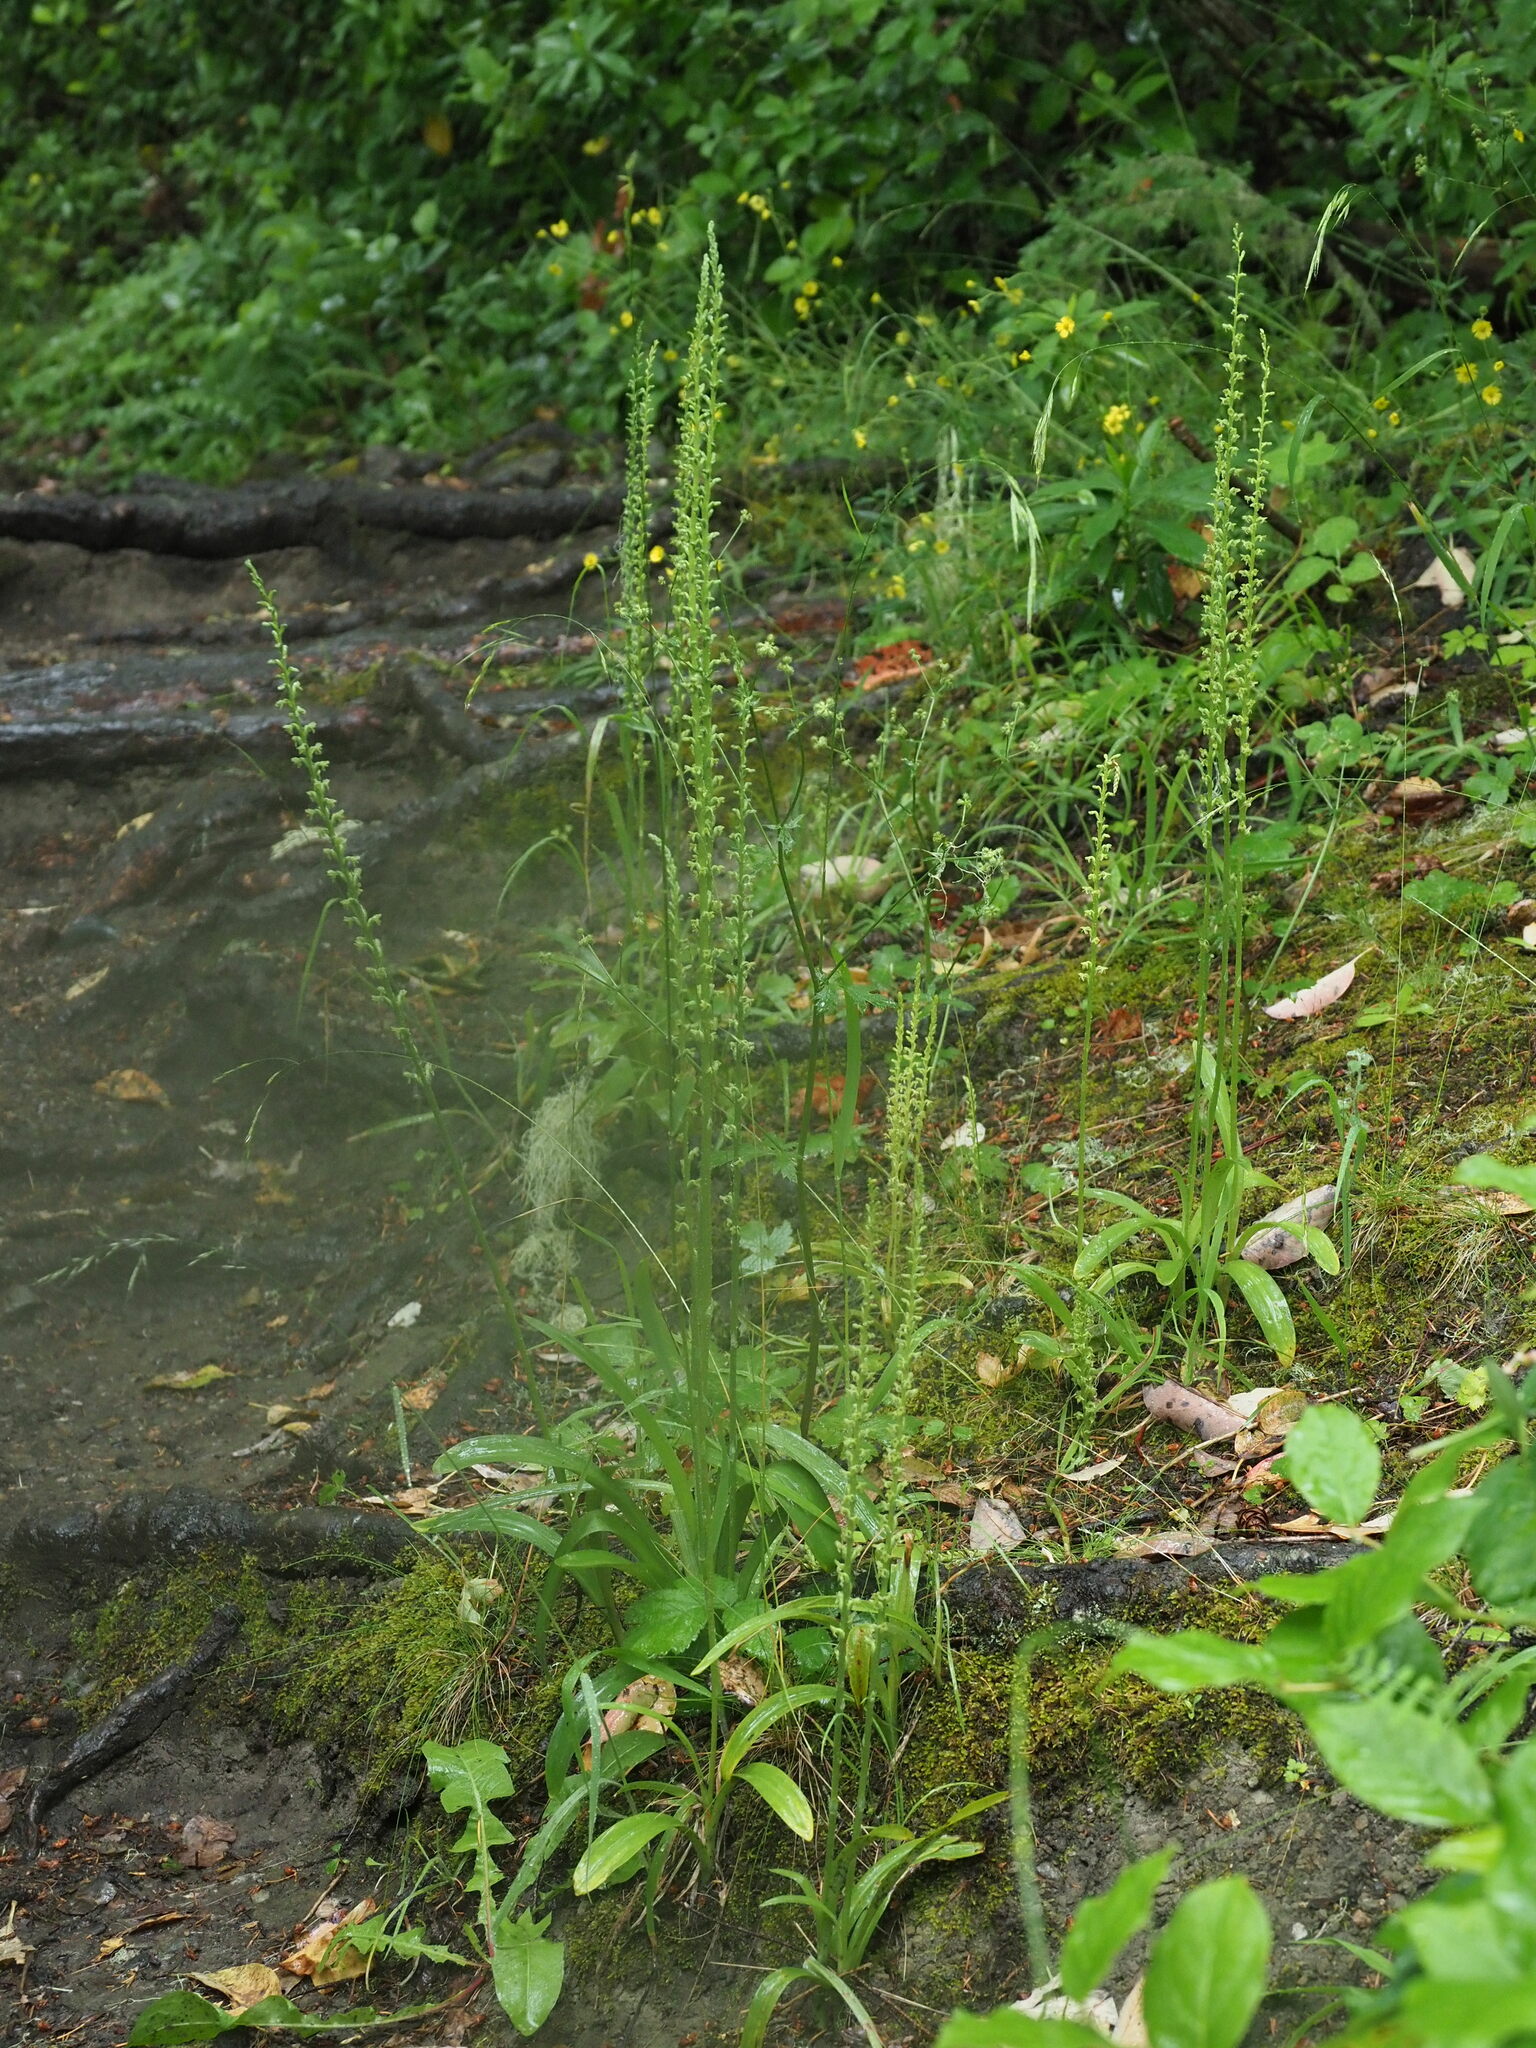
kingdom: Plantae
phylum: Tracheophyta
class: Liliopsida
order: Asparagales
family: Orchidaceae
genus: Platanthera
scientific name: Platanthera unalascensis
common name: Alaska bog orchid
